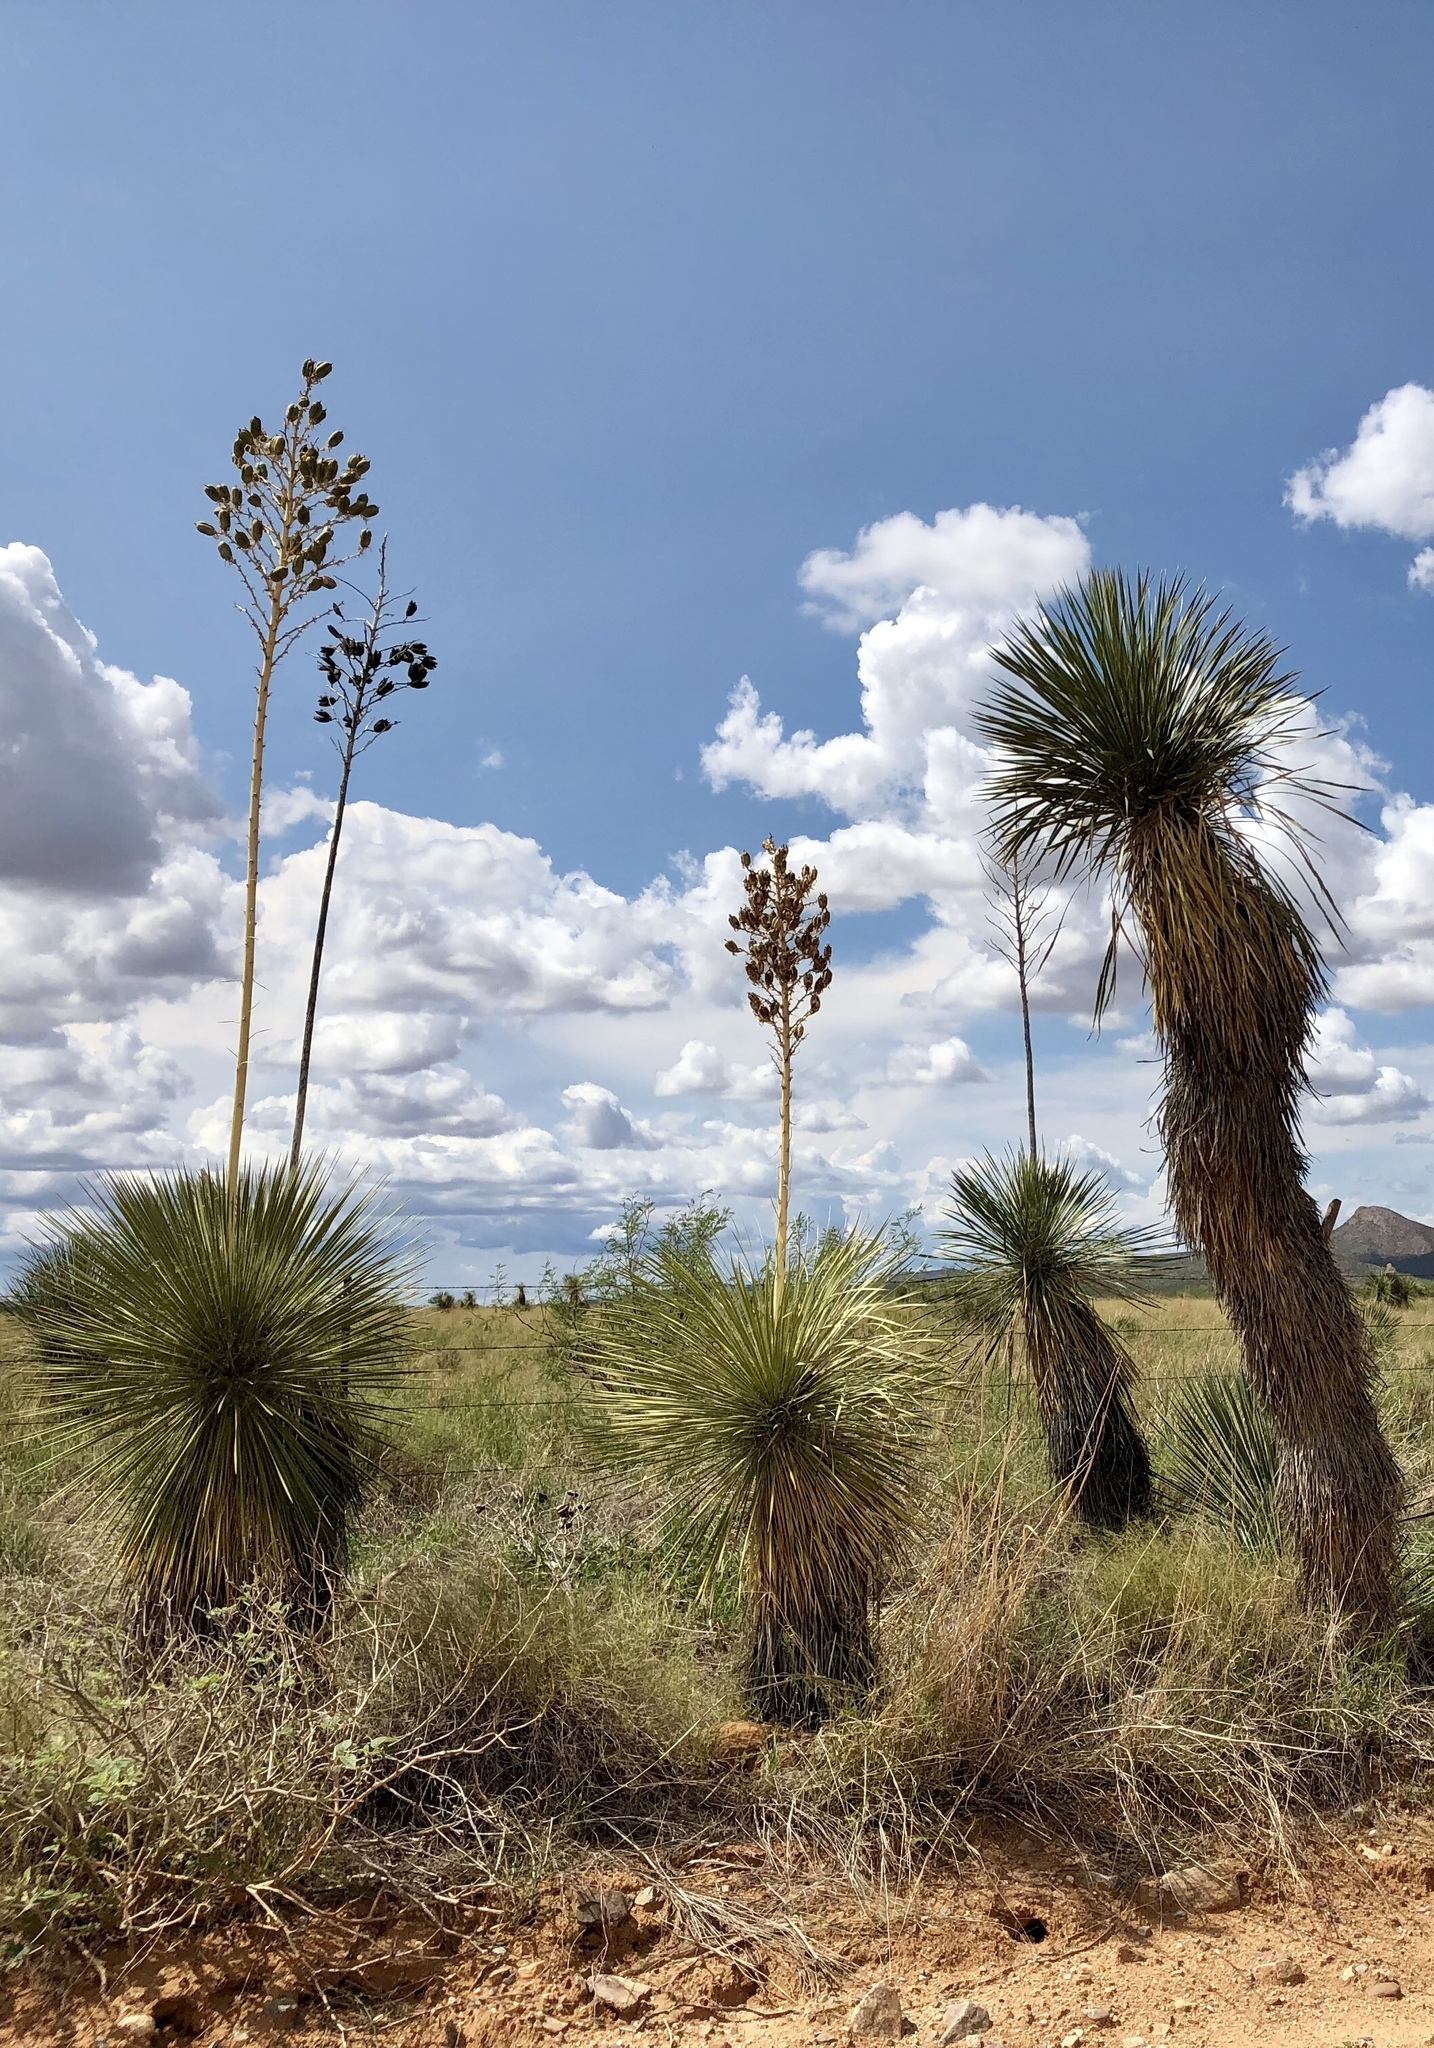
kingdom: Plantae
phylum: Tracheophyta
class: Liliopsida
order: Asparagales
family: Asparagaceae
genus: Yucca
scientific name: Yucca elata
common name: Palmella
